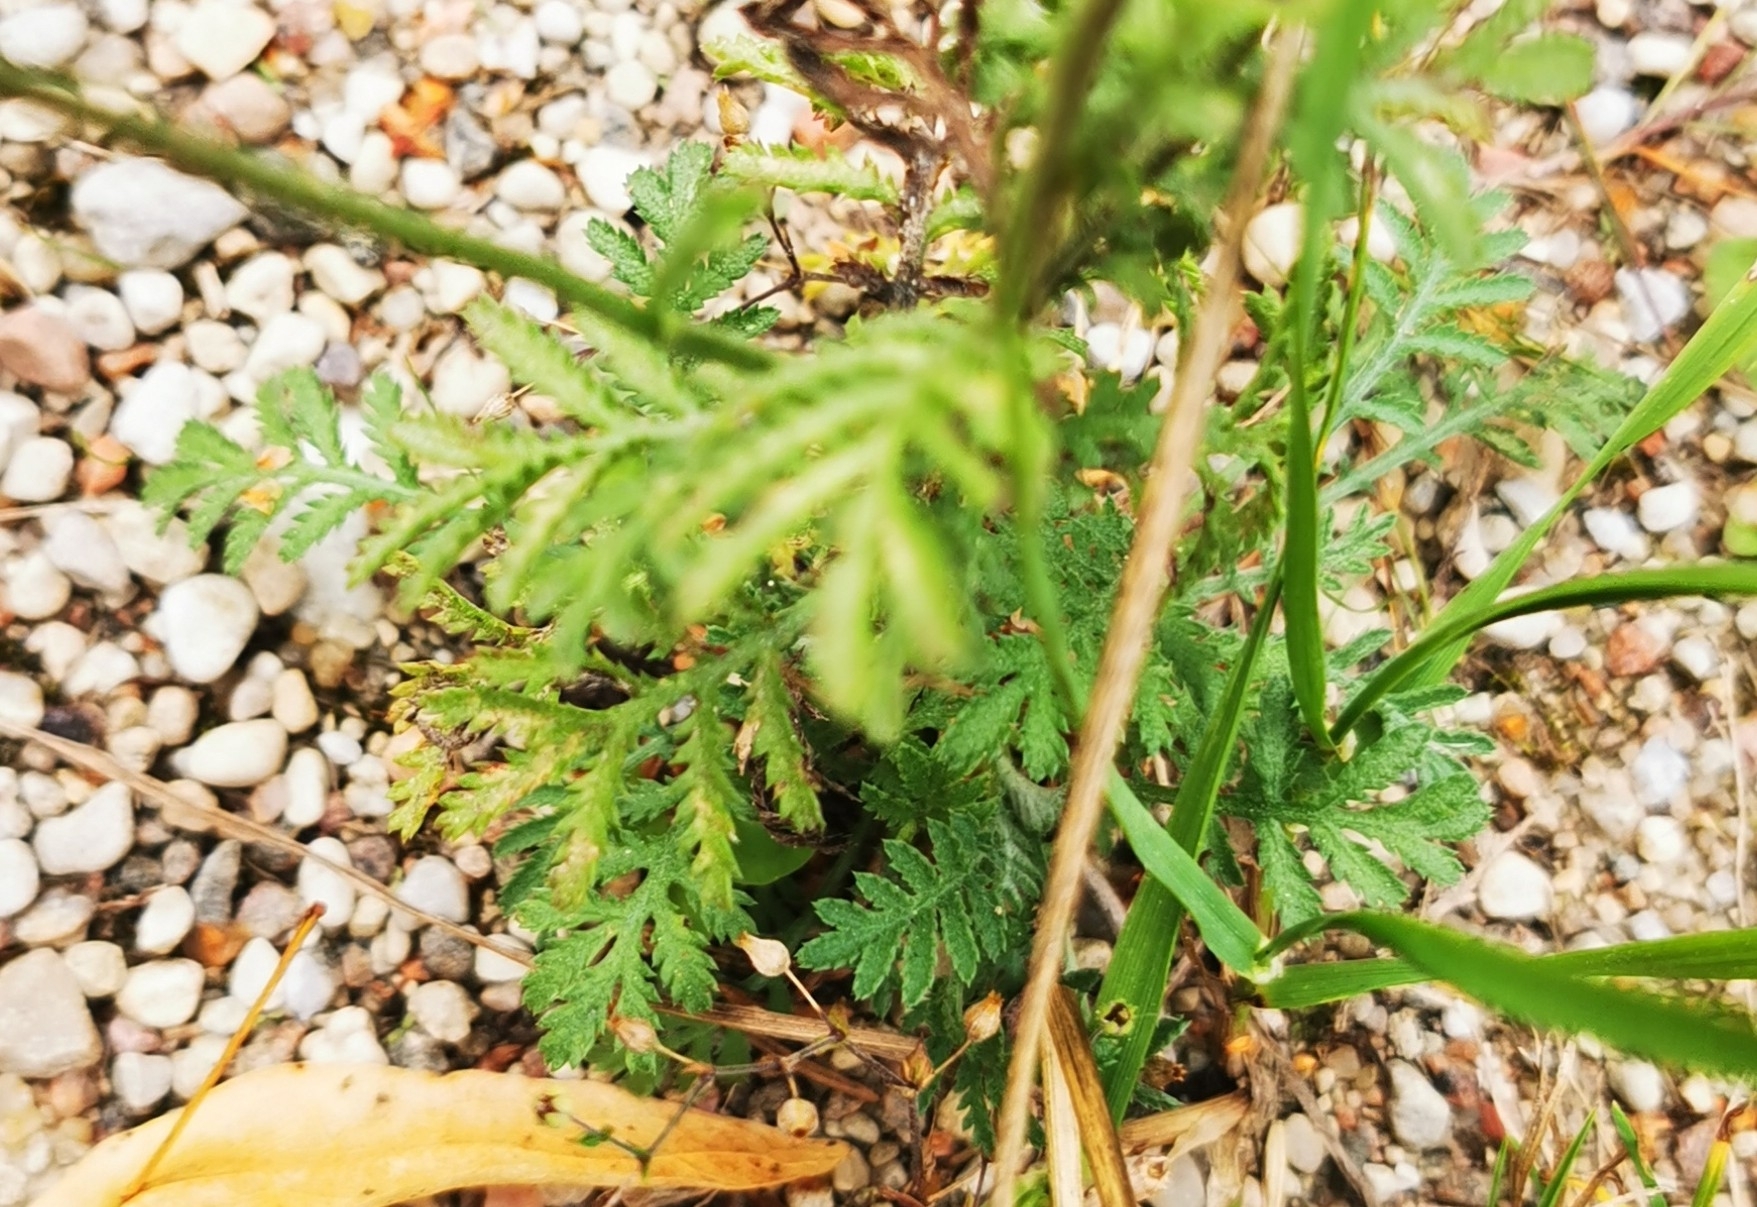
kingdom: Plantae
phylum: Tracheophyta
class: Magnoliopsida
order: Asterales
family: Asteraceae
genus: Cota
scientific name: Cota tinctoria
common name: Golden chamomile
